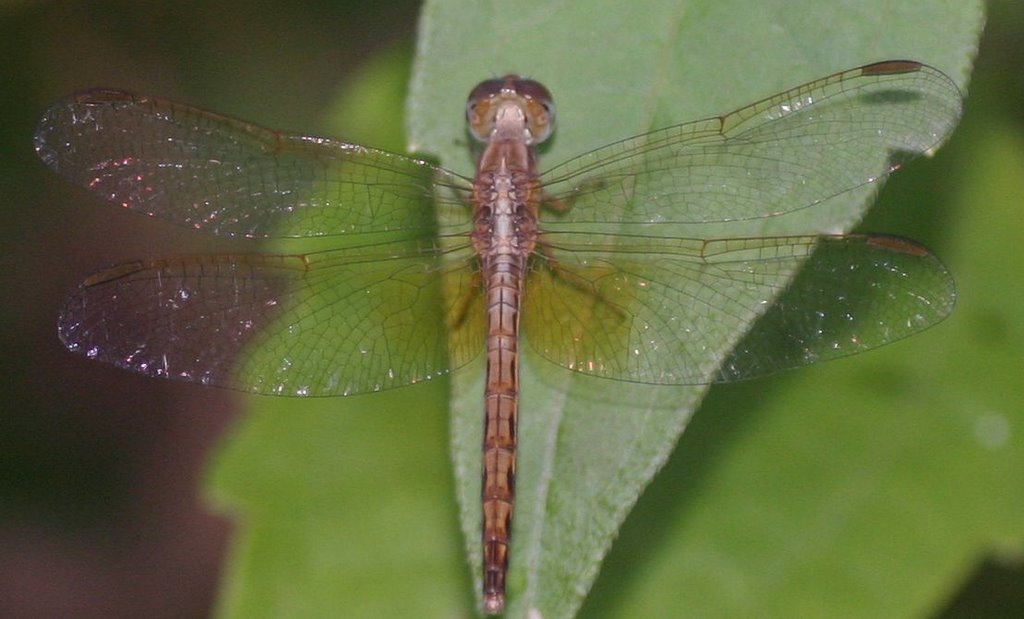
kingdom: Animalia
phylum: Arthropoda
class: Insecta
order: Odonata
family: Libellulidae
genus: Neurothemis
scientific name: Neurothemis intermedia
